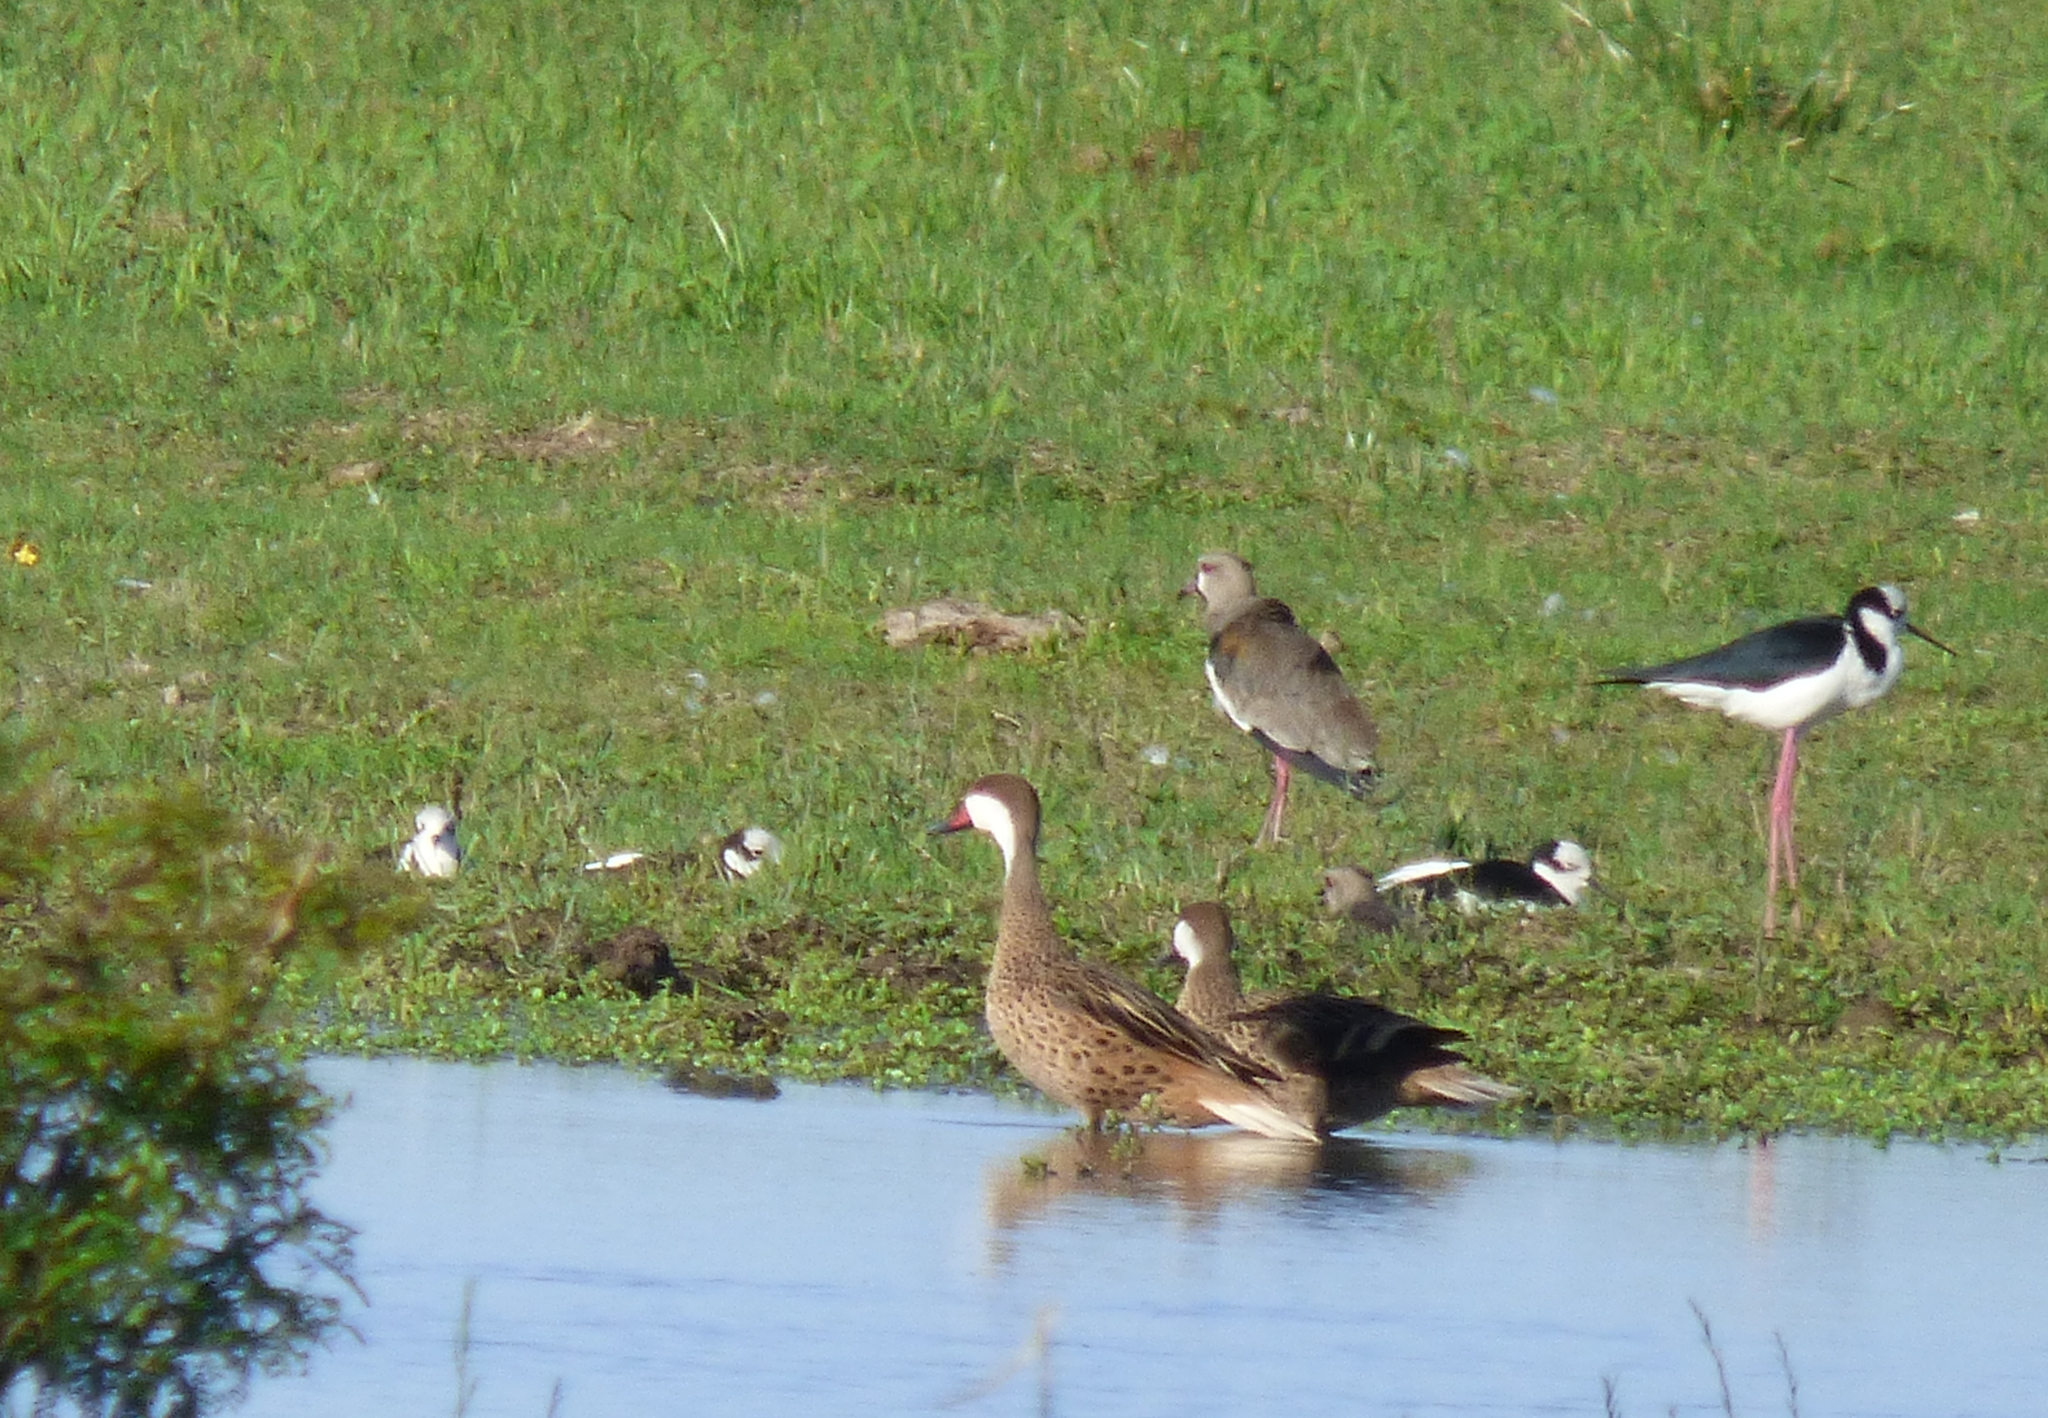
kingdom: Animalia
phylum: Chordata
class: Aves
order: Anseriformes
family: Anatidae
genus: Anas
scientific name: Anas bahamensis
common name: White-cheeked pintail
